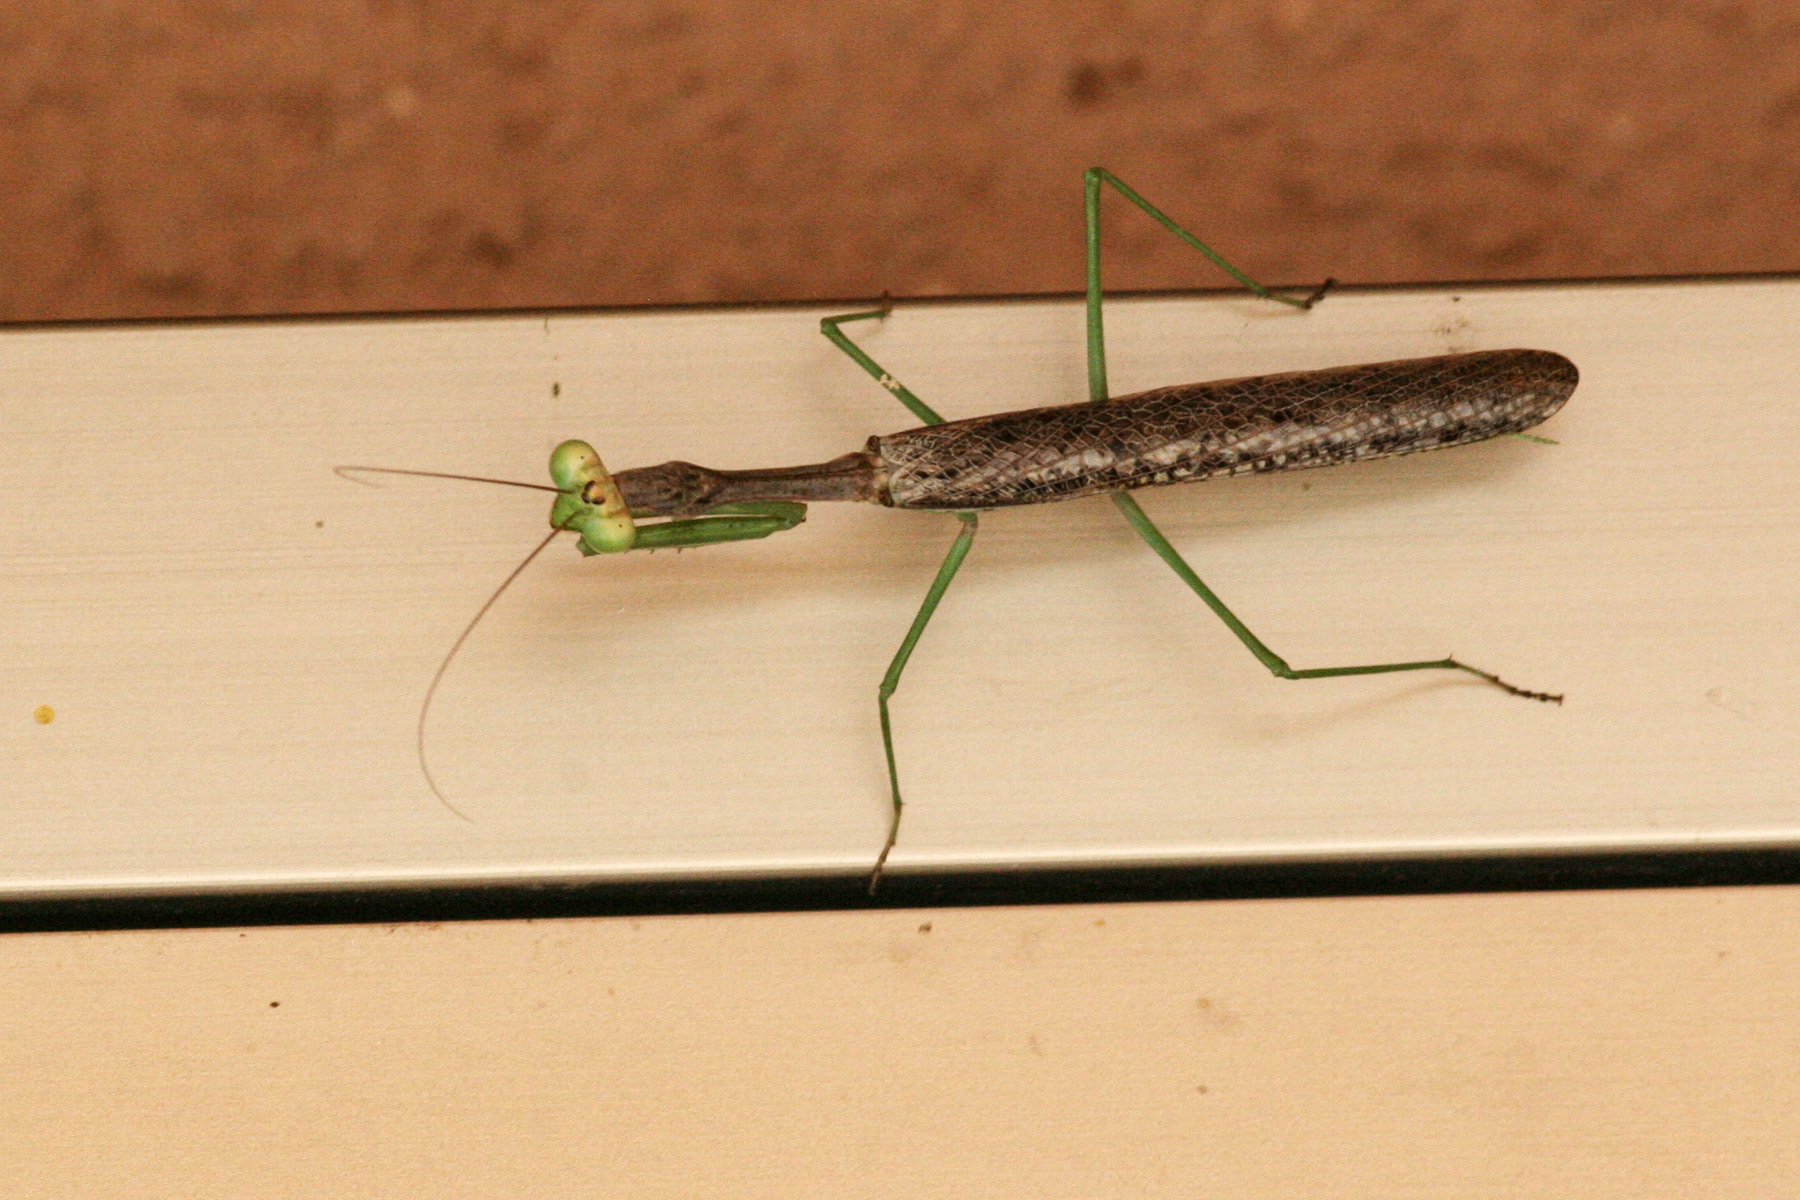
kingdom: Animalia
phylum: Arthropoda
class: Insecta
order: Mantodea
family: Mantidae
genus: Stagmomantis
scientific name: Stagmomantis californica
